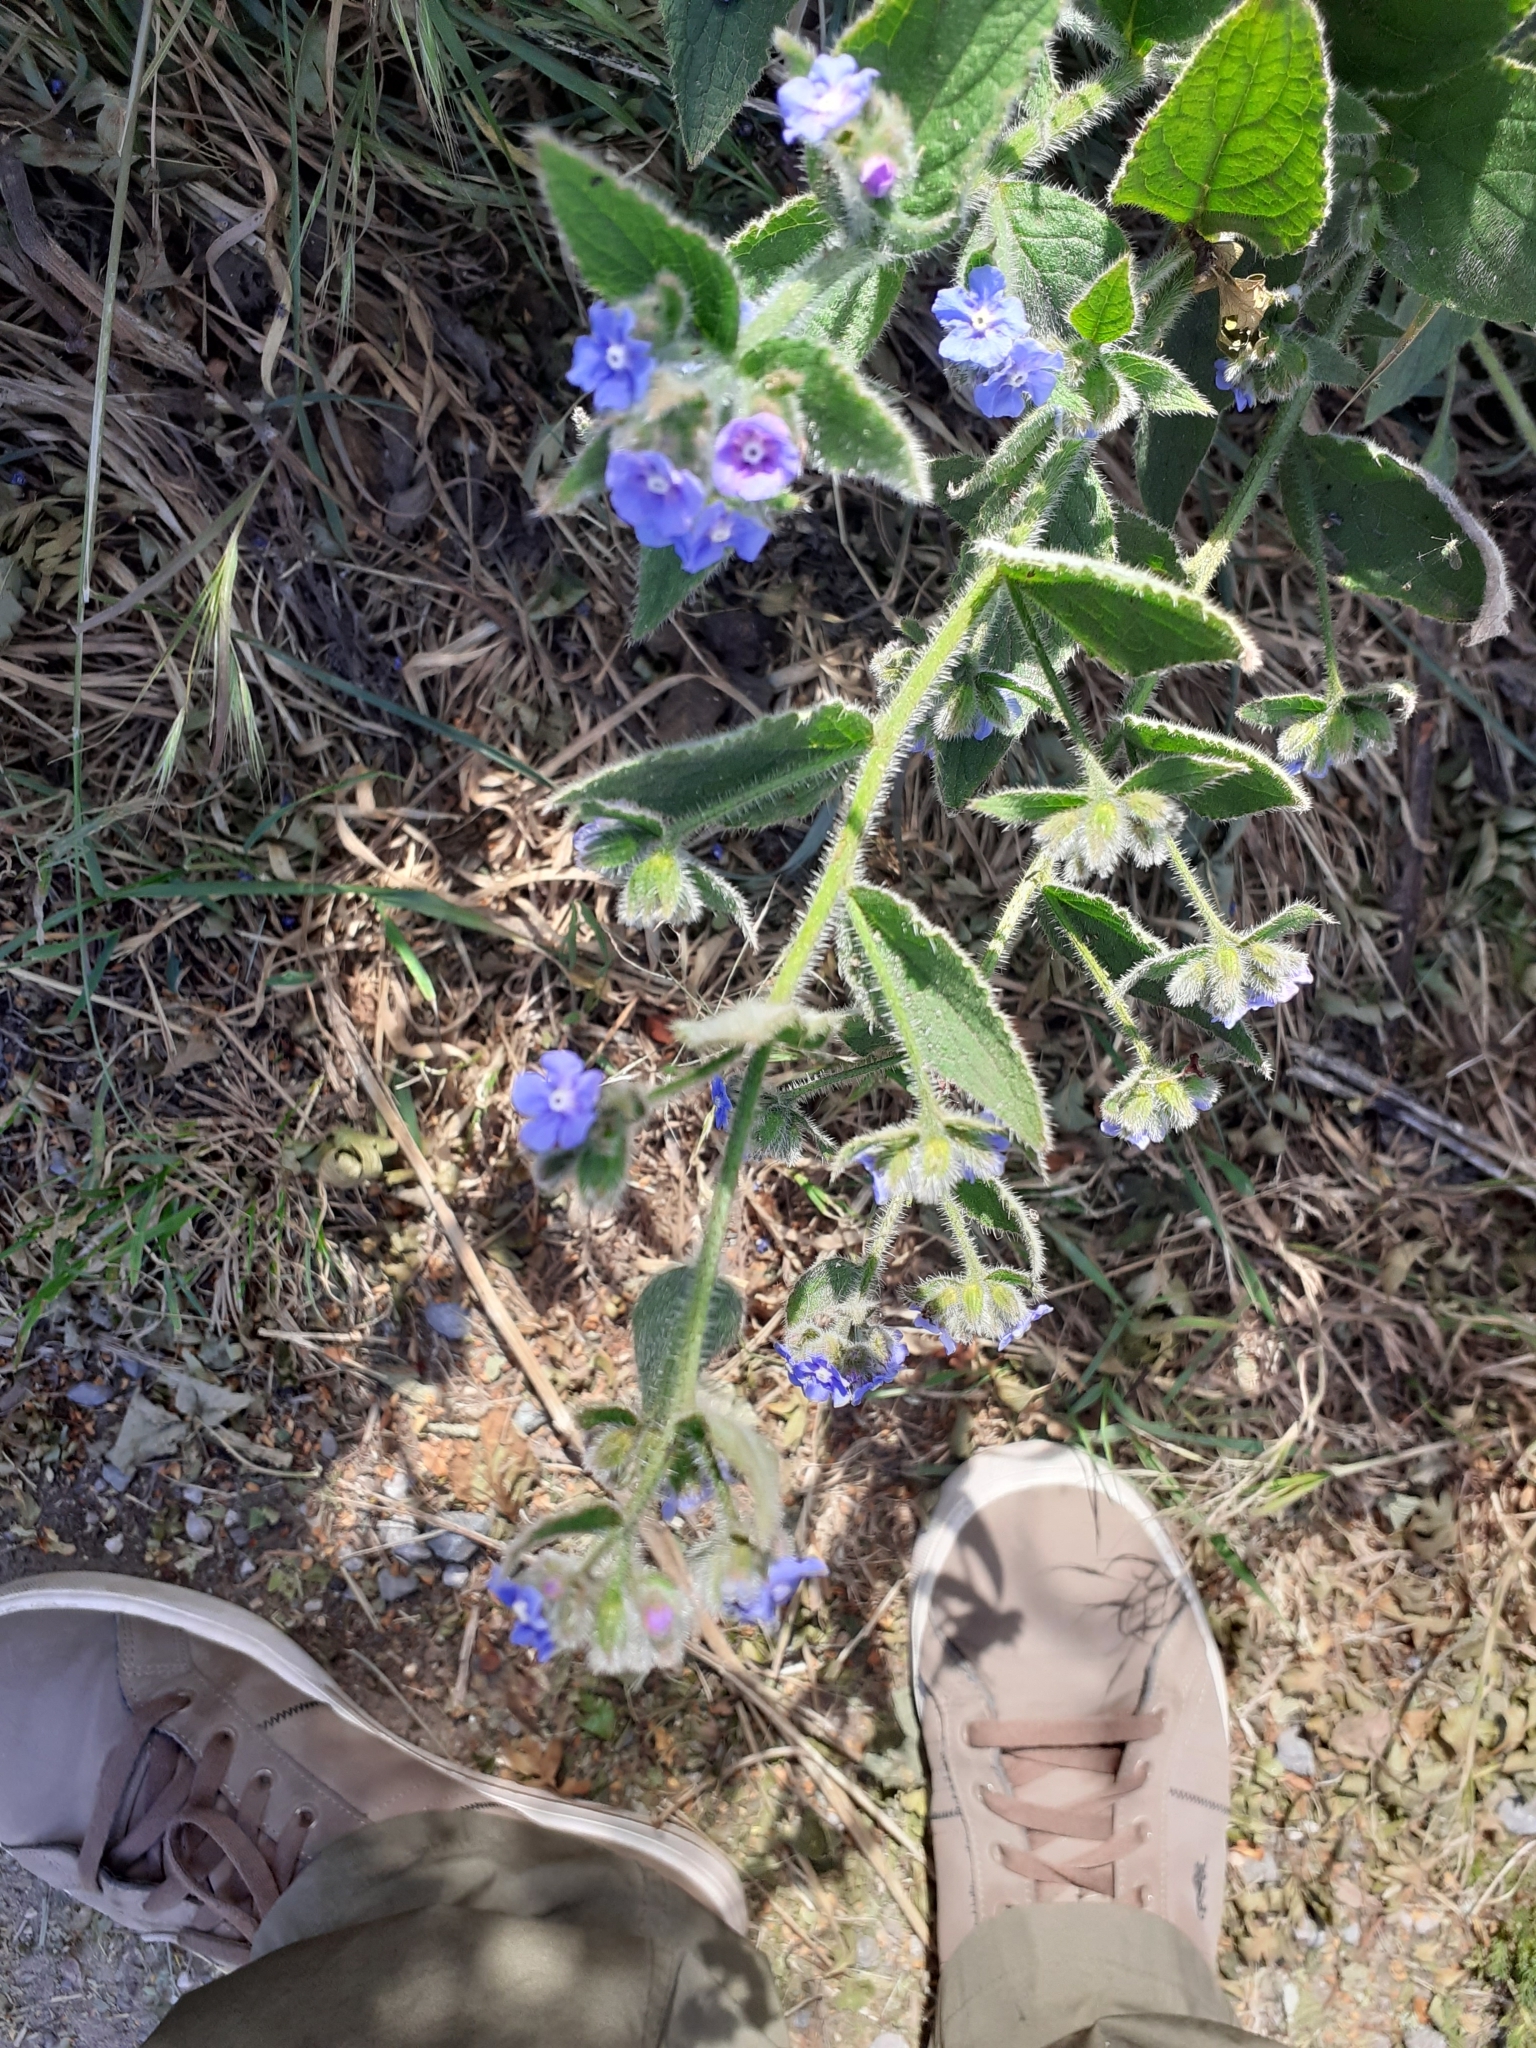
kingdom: Plantae
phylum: Tracheophyta
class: Magnoliopsida
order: Boraginales
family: Boraginaceae
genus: Pentaglottis
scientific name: Pentaglottis sempervirens
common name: Green alkanet
